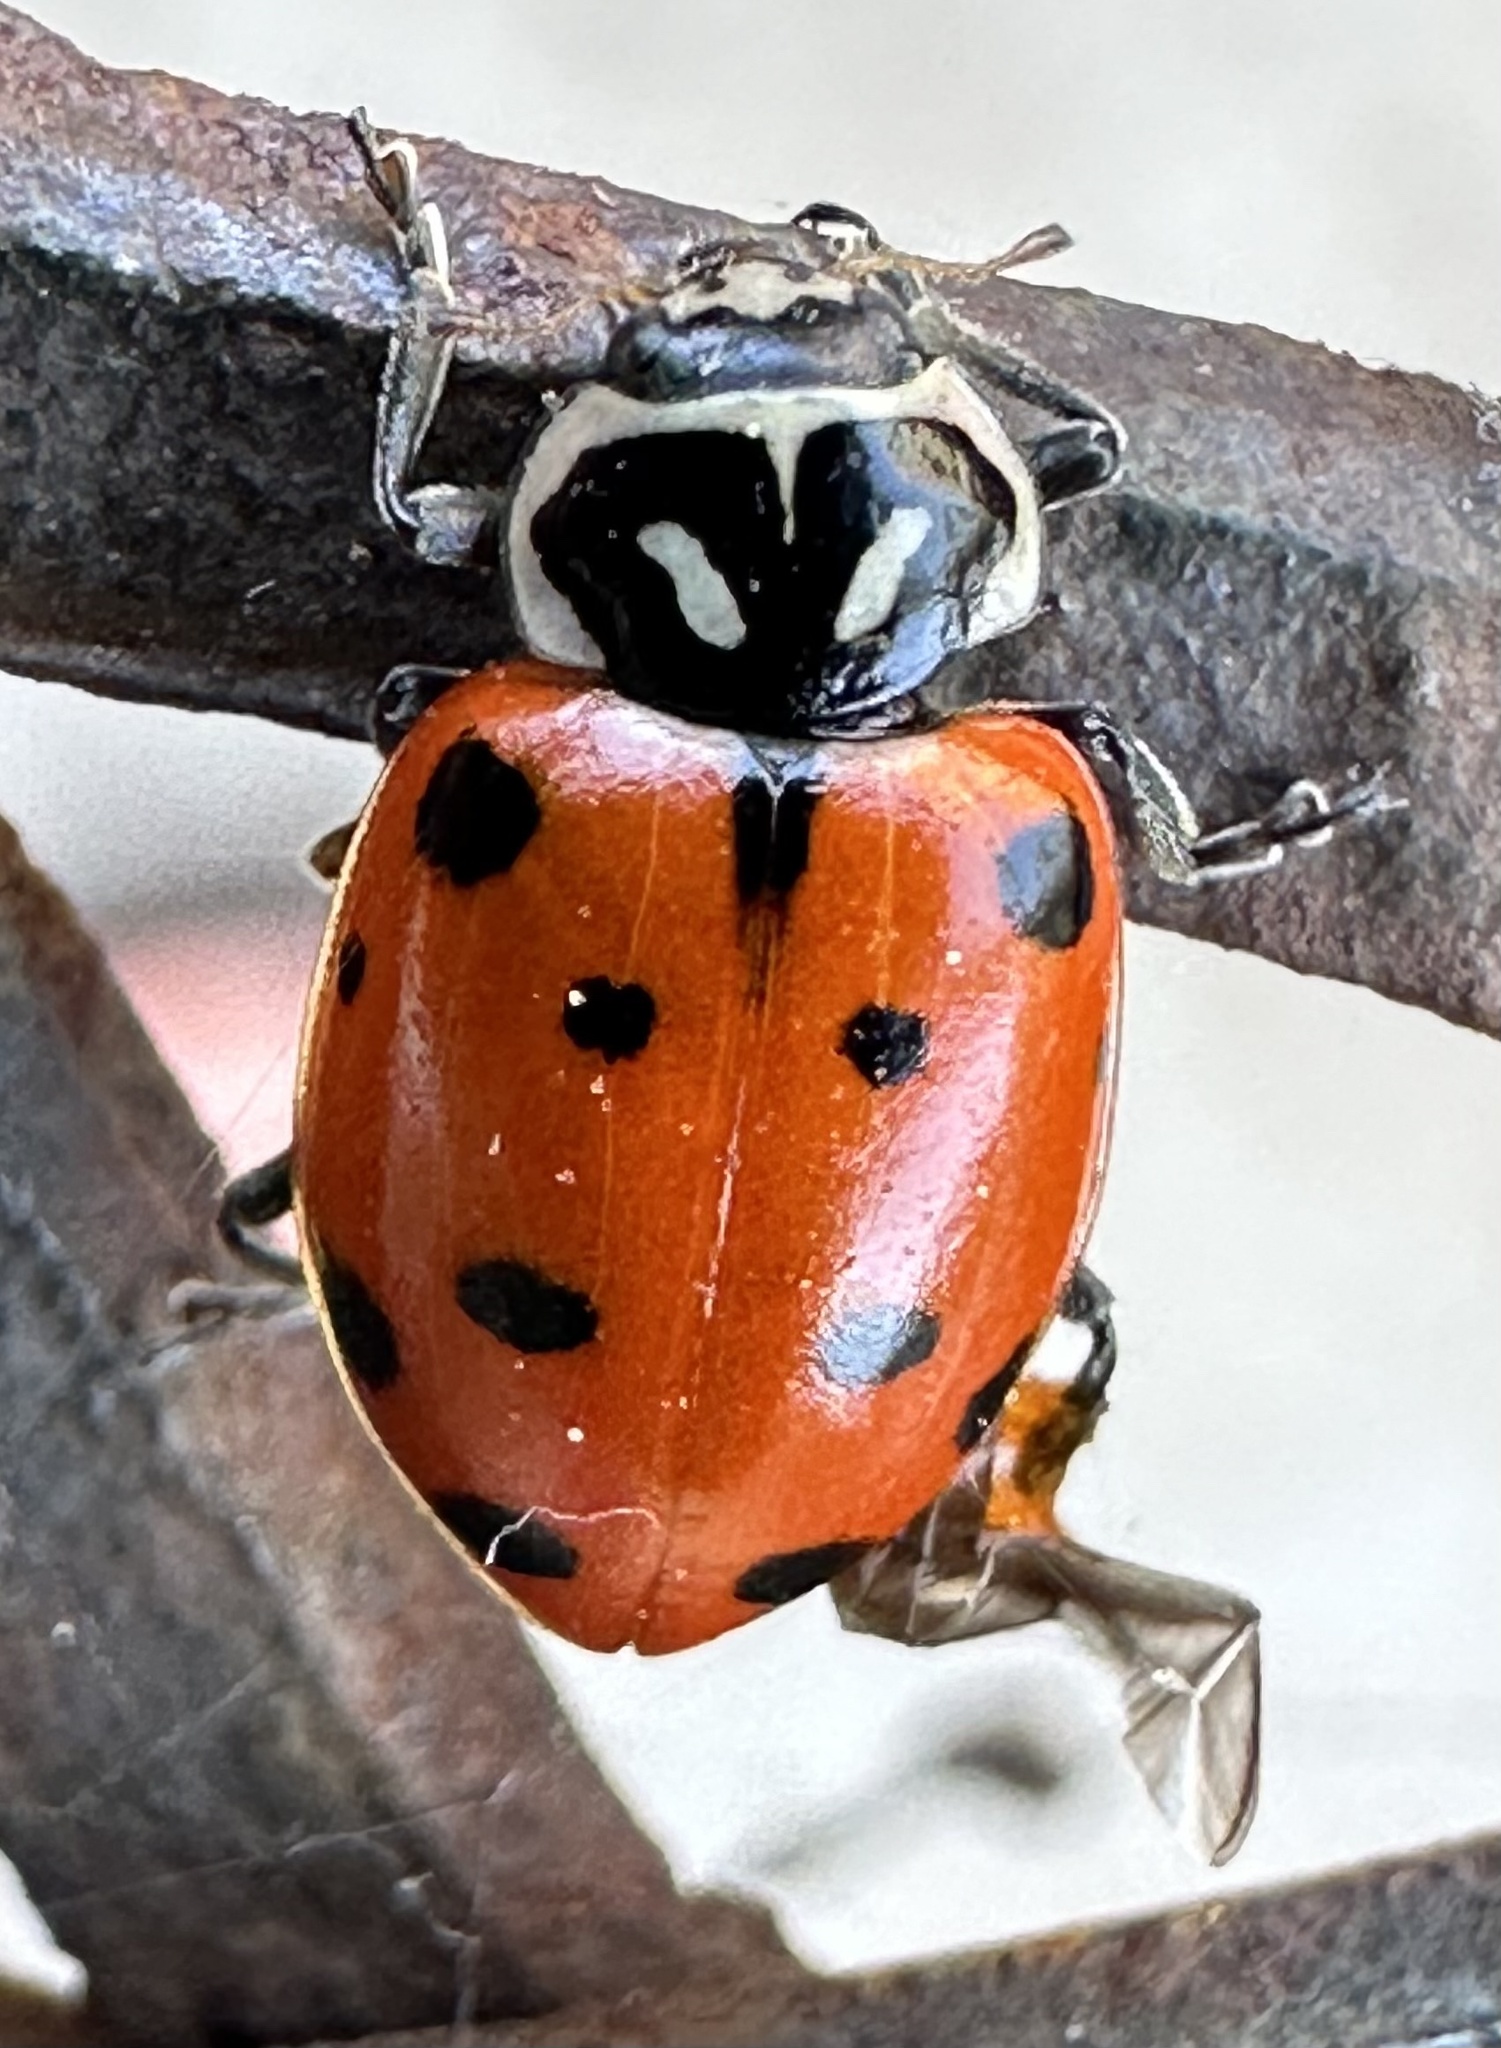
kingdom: Animalia
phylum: Arthropoda
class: Insecta
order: Coleoptera
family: Coccinellidae
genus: Hippodamia
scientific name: Hippodamia convergens
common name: Convergent lady beetle
